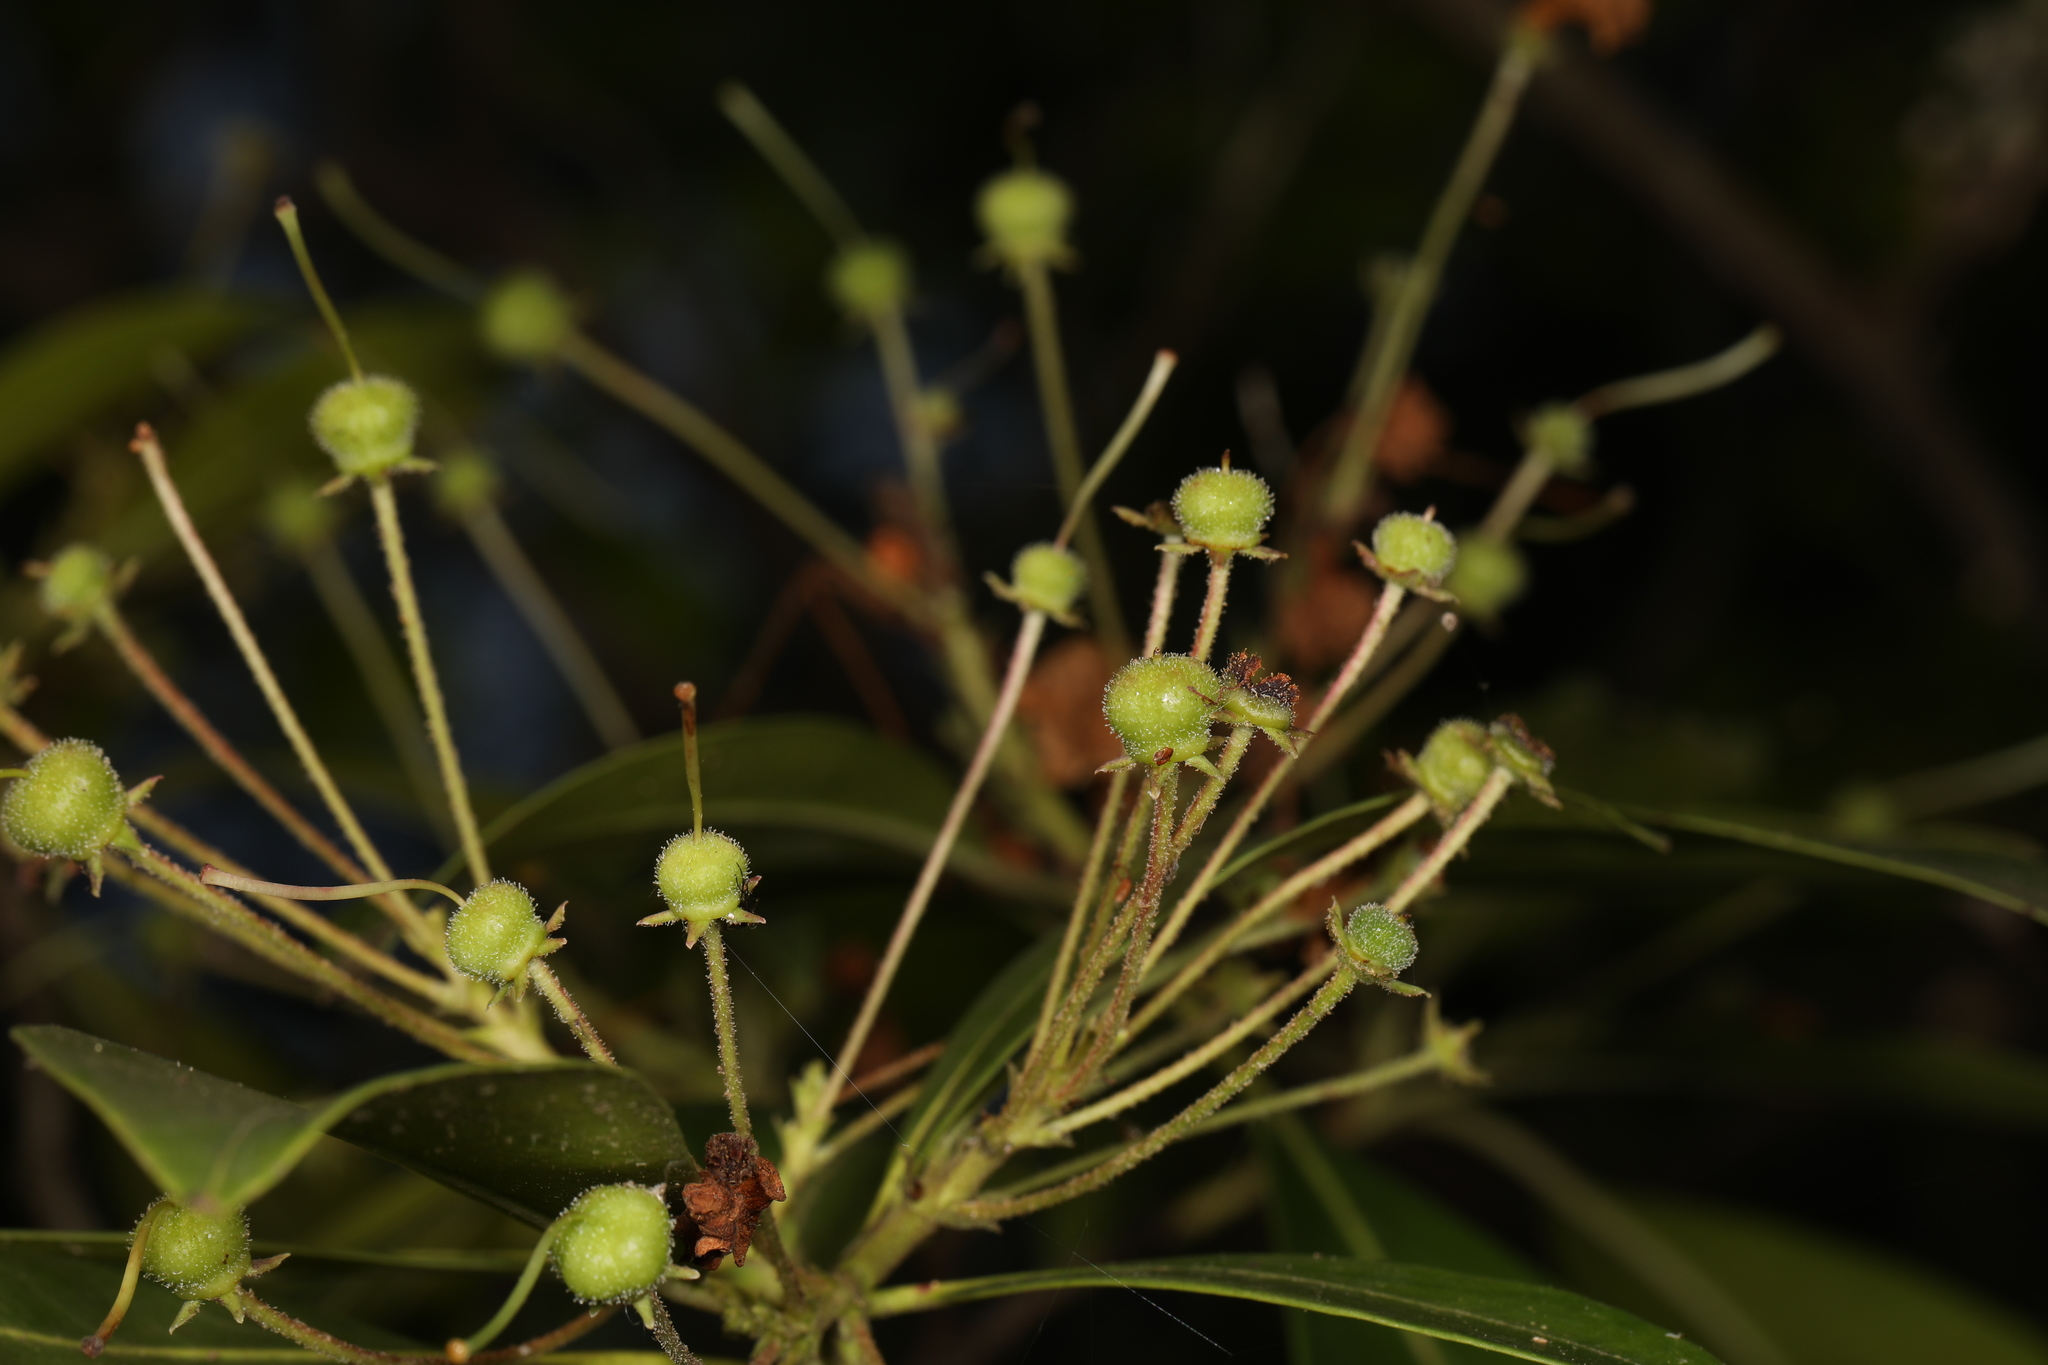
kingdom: Plantae
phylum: Tracheophyta
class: Magnoliopsida
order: Ericales
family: Ericaceae
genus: Kalmia
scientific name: Kalmia latifolia
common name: Mountain-laurel
